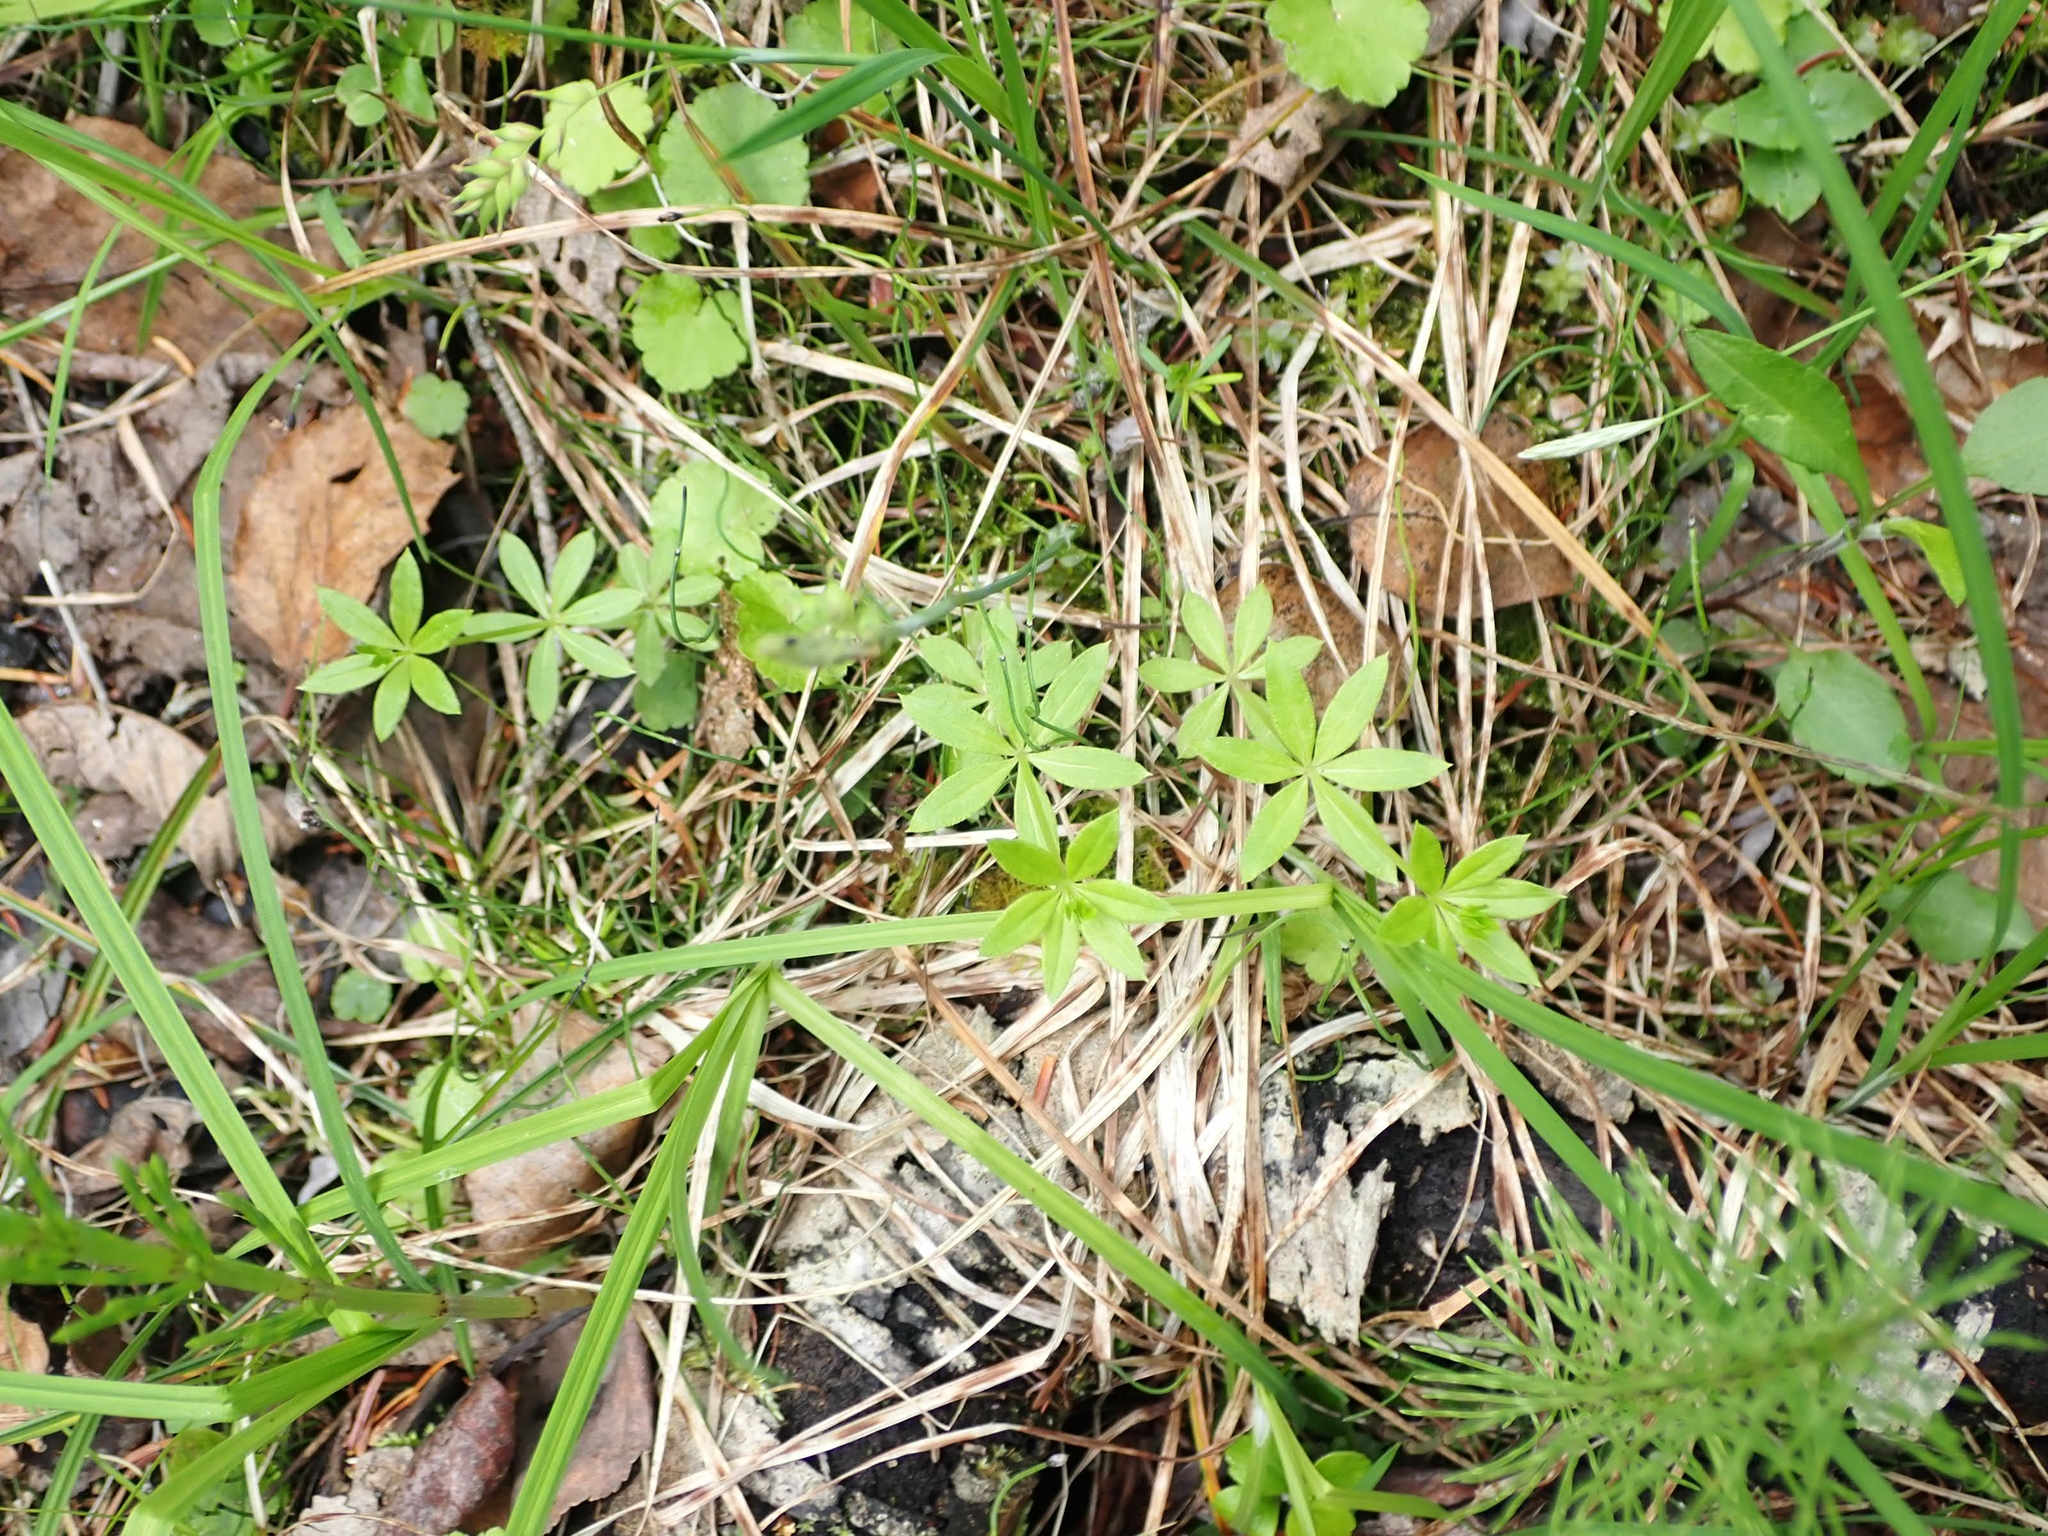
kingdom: Plantae
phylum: Tracheophyta
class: Magnoliopsida
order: Gentianales
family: Rubiaceae
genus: Galium
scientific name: Galium triflorum
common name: Fragrant bedstraw
